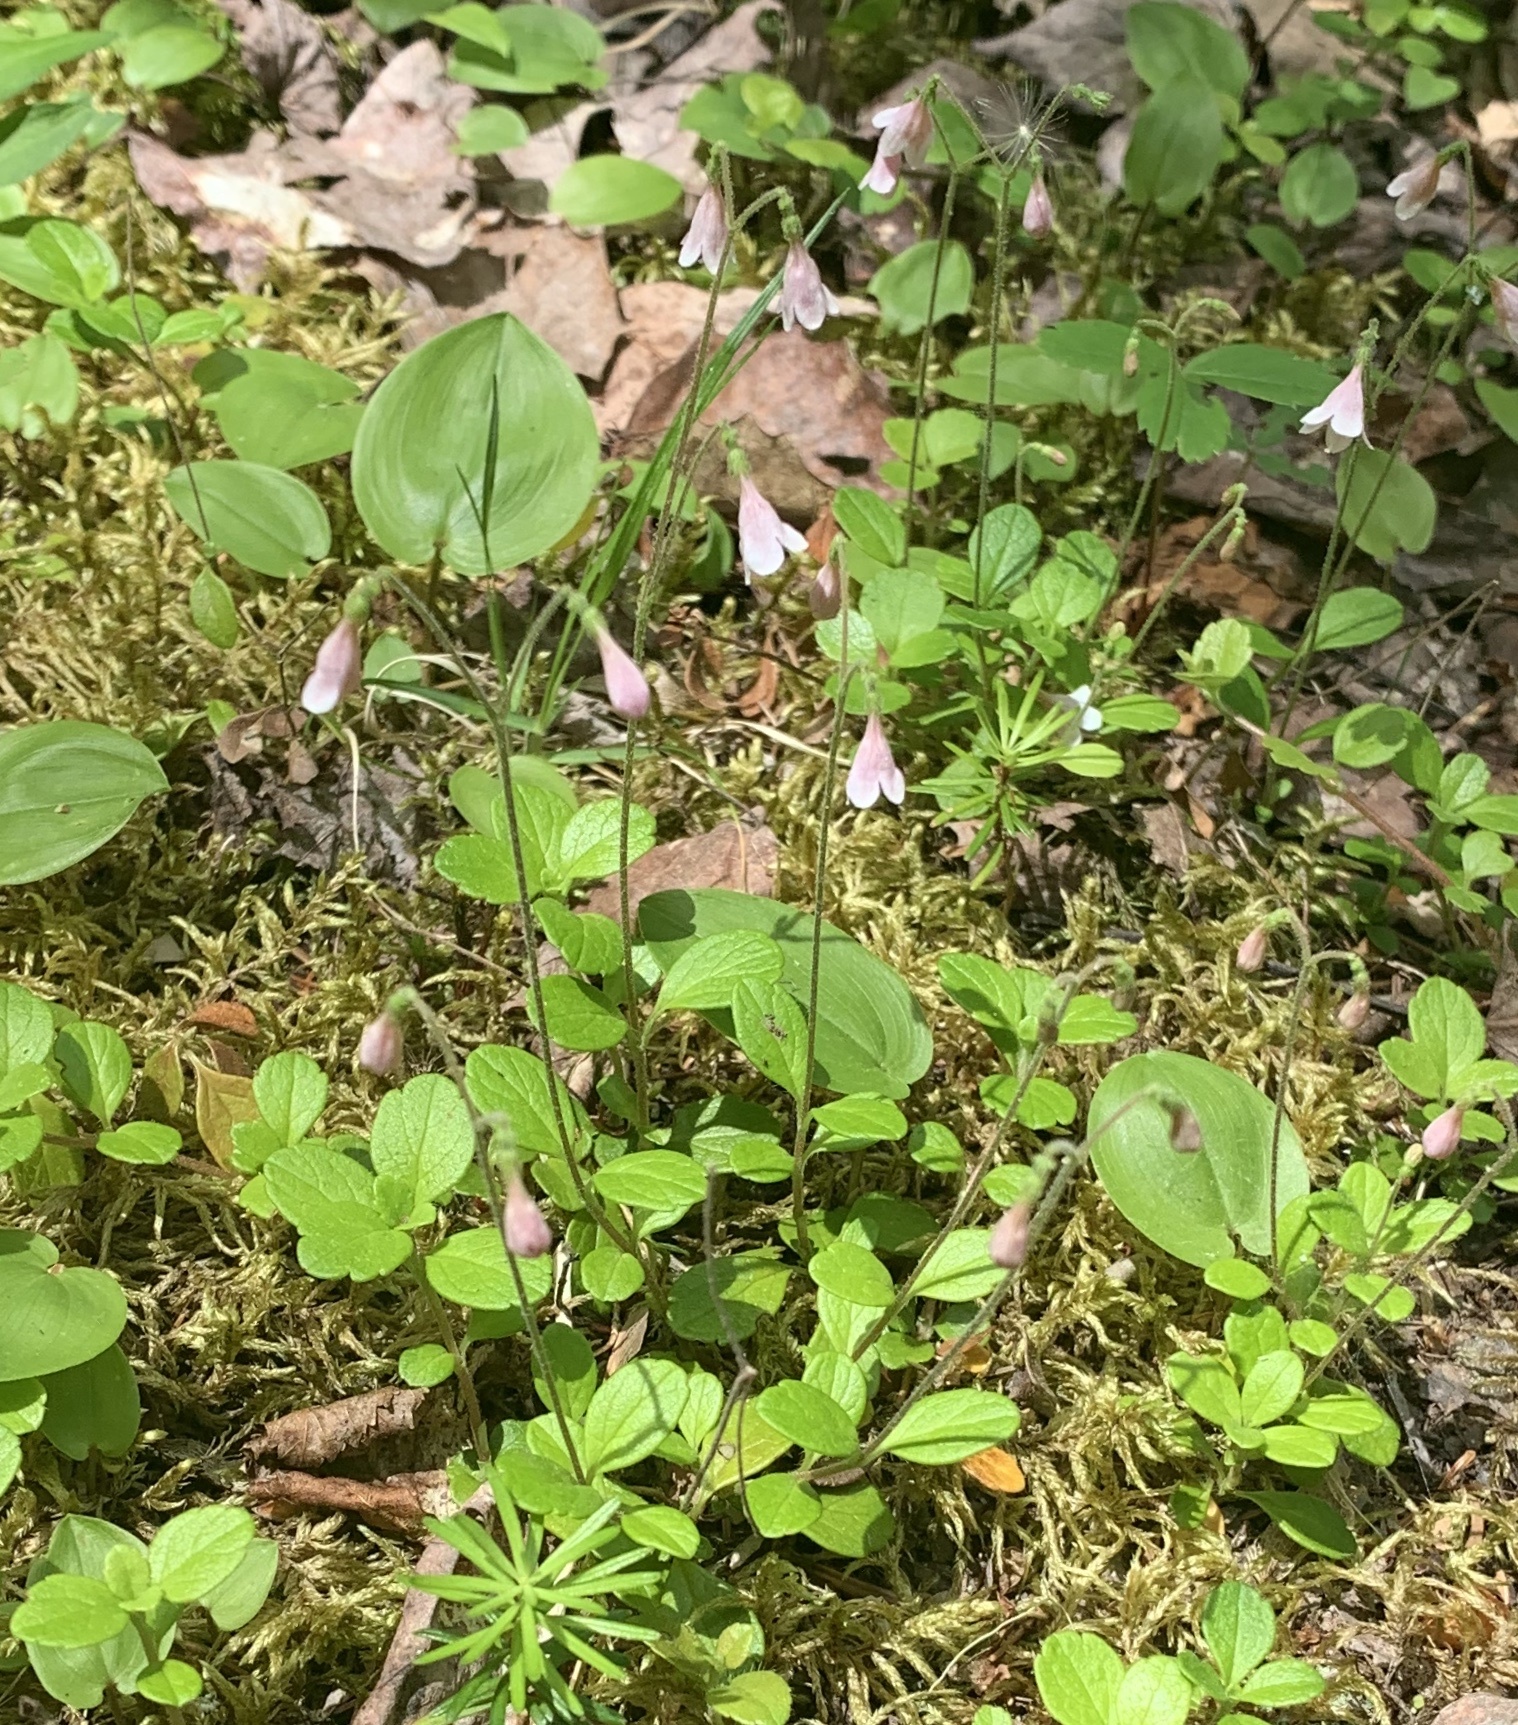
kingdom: Plantae
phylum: Tracheophyta
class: Magnoliopsida
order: Dipsacales
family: Caprifoliaceae
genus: Linnaea
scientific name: Linnaea borealis
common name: Twinflower
